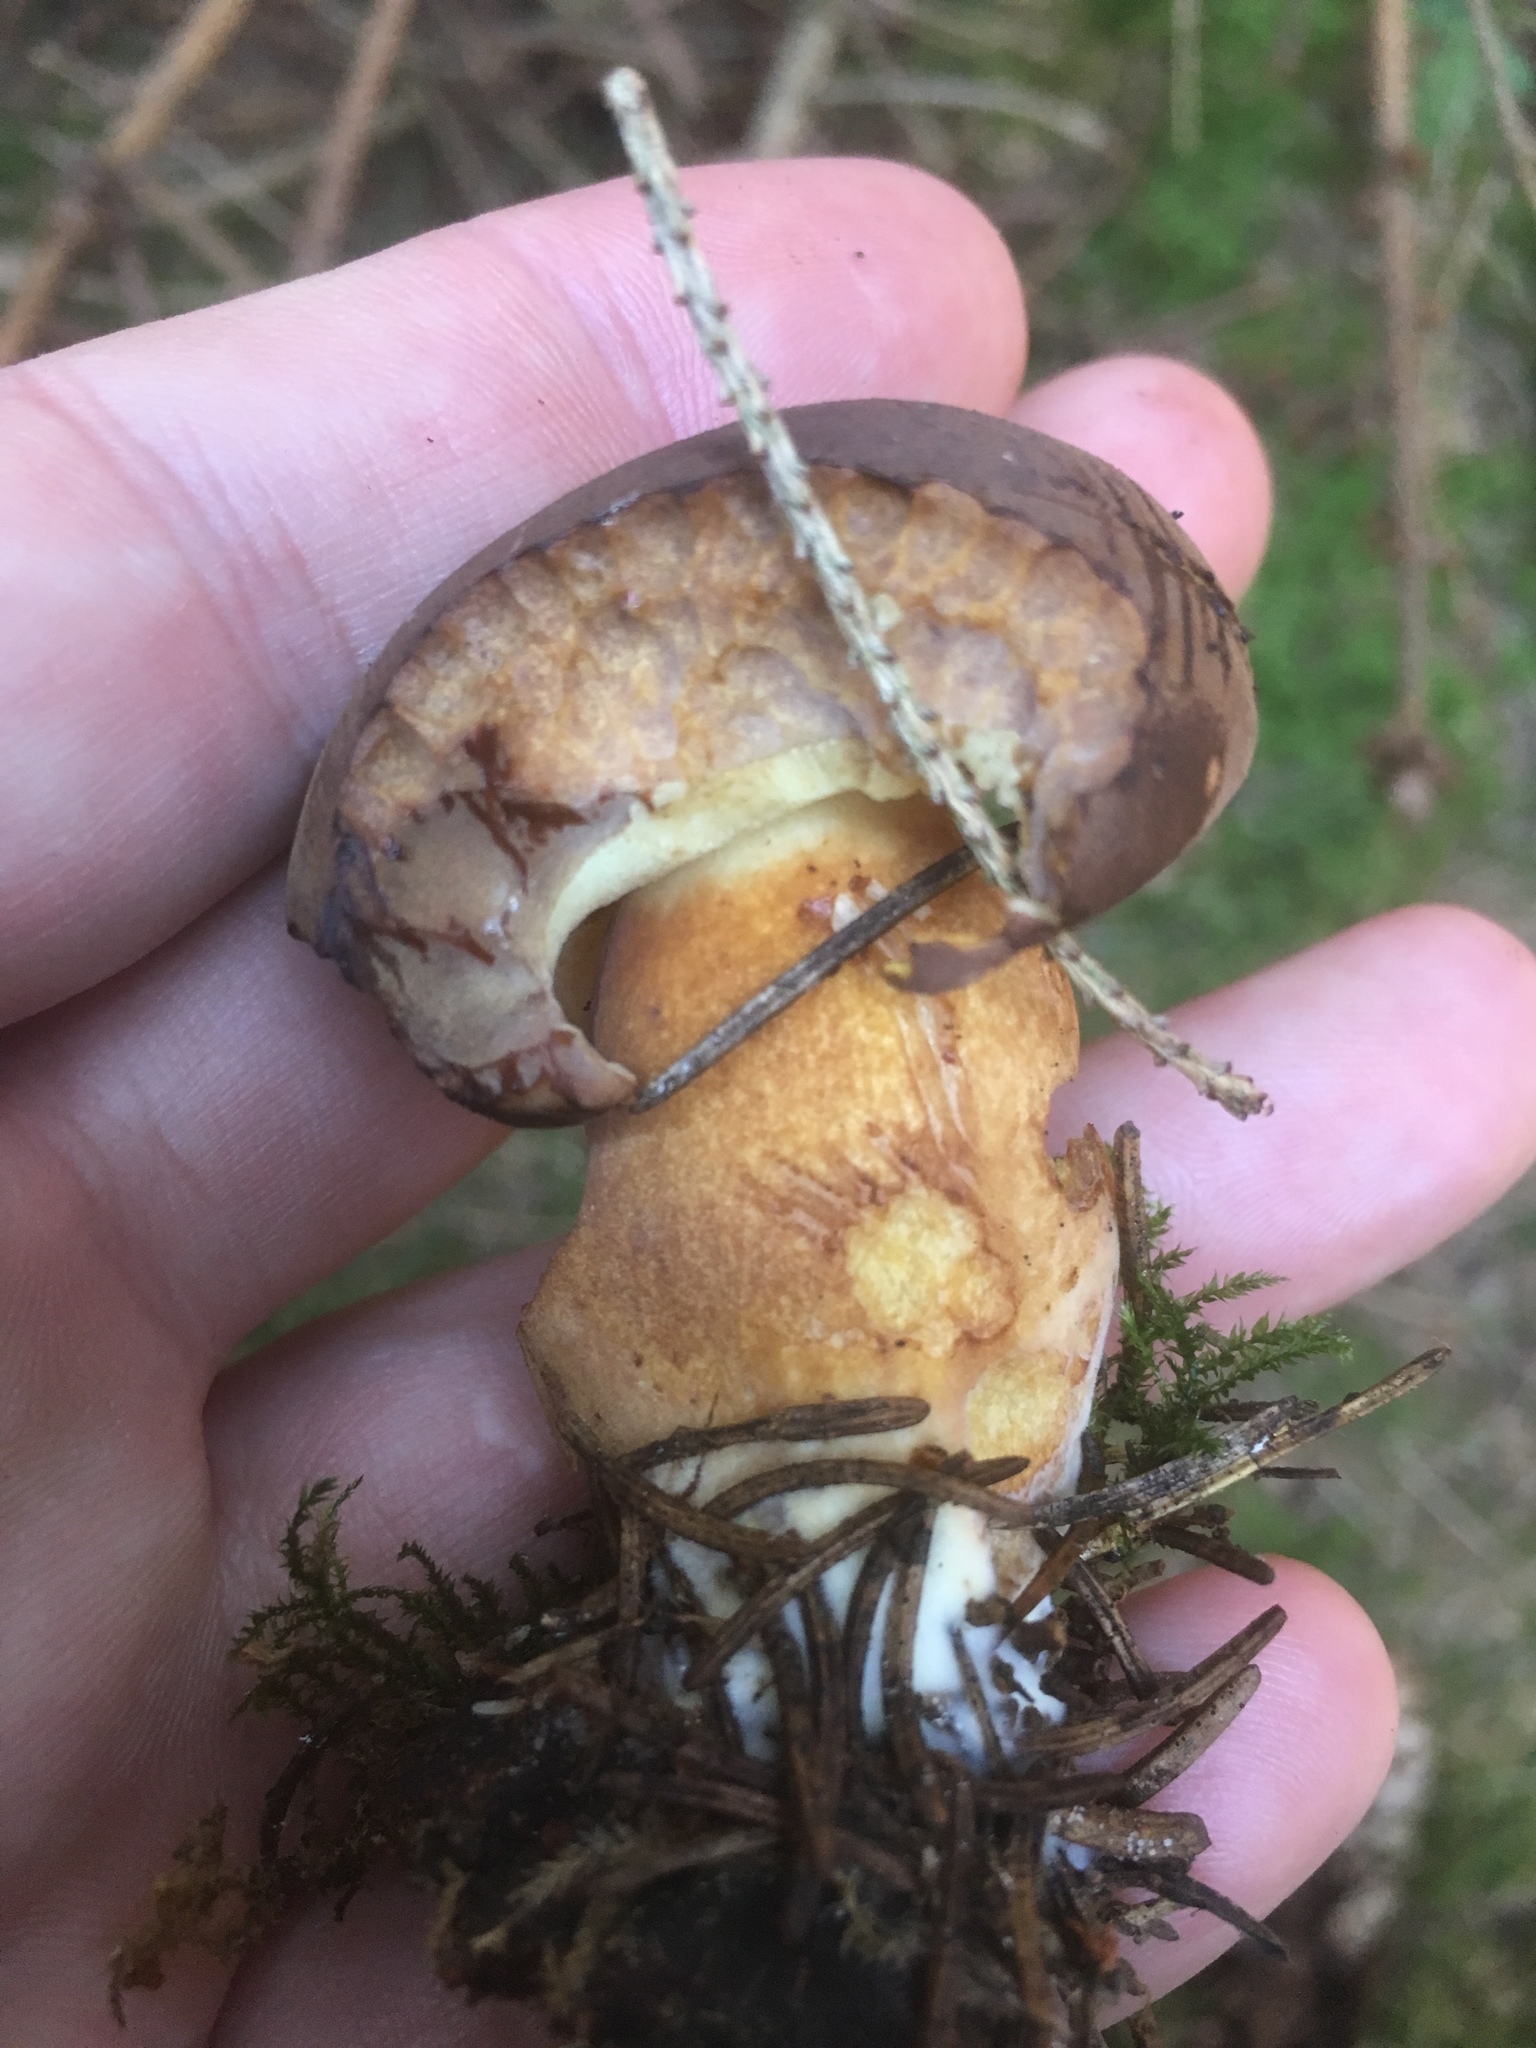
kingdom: Fungi
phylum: Basidiomycota
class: Agaricomycetes
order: Boletales
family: Boletaceae
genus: Imleria
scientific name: Imleria badia
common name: Bay bolete
